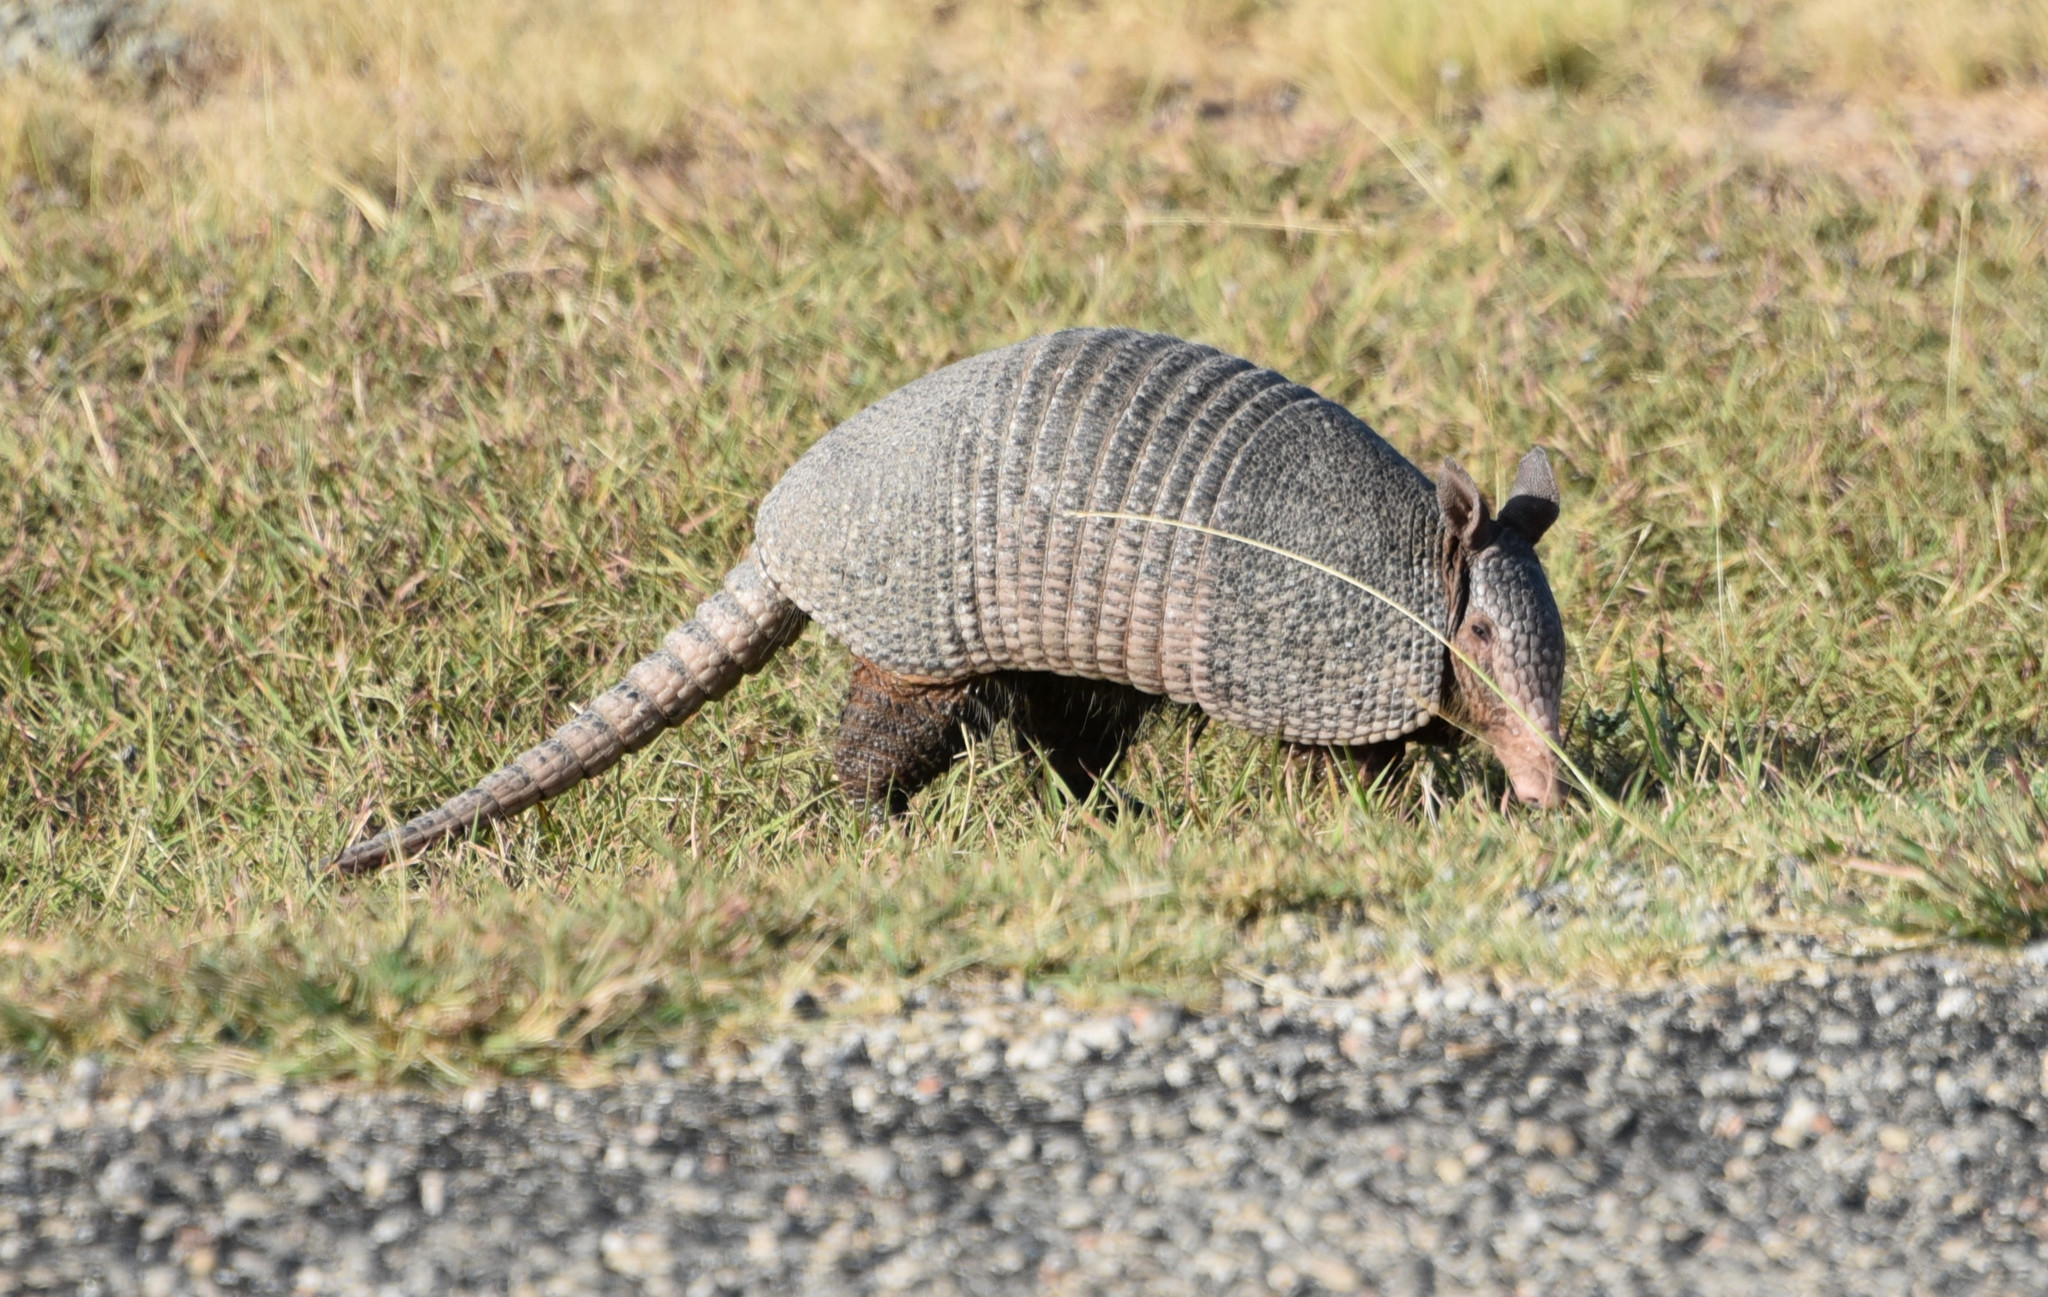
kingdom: Animalia
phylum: Chordata
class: Mammalia
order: Cingulata
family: Dasypodidae
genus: Dasypus
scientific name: Dasypus novemcinctus
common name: Nine-banded armadillo
